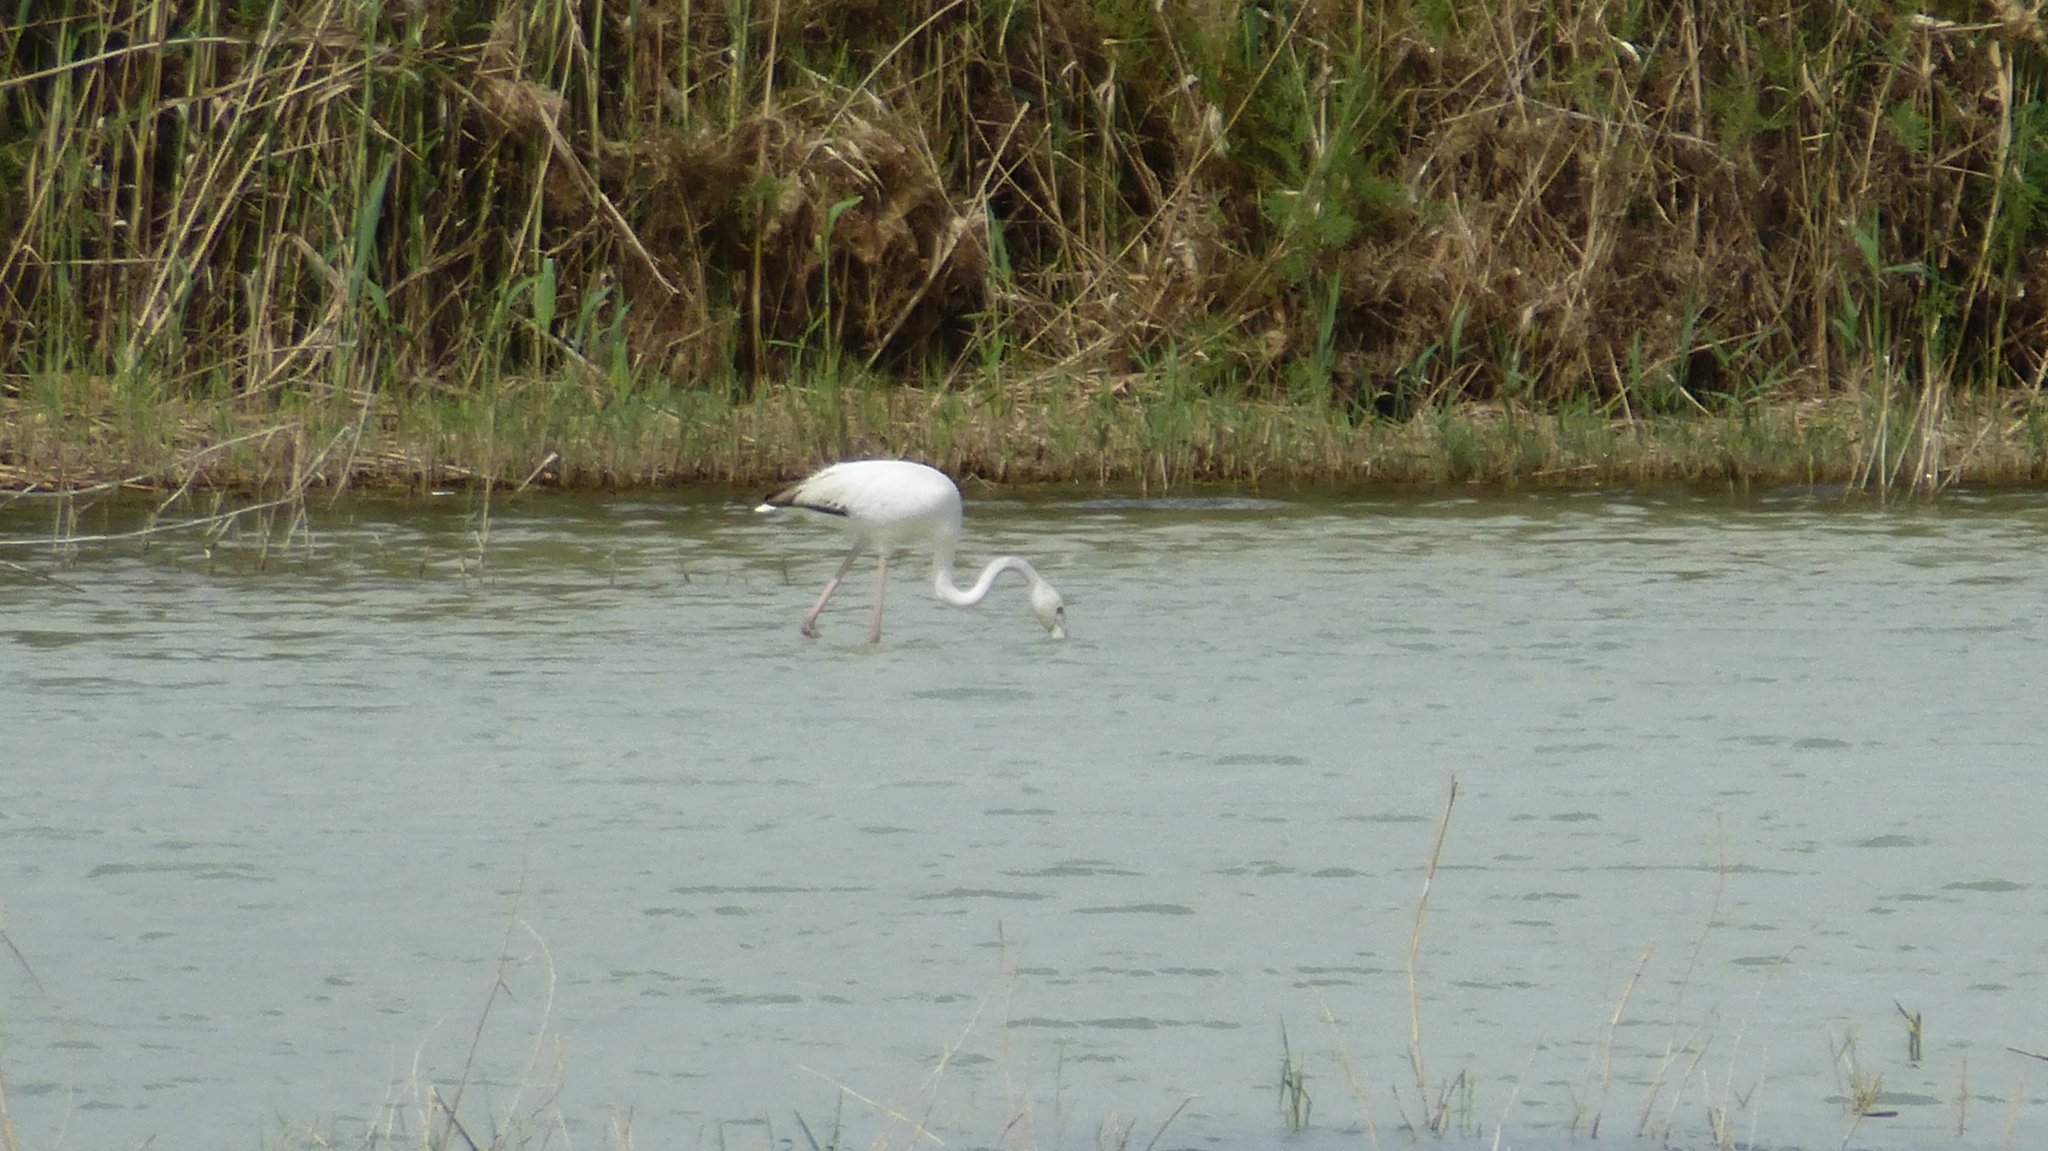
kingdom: Animalia
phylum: Chordata
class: Aves
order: Phoenicopteriformes
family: Phoenicopteridae
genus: Phoenicopterus
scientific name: Phoenicopterus roseus
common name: Greater flamingo
